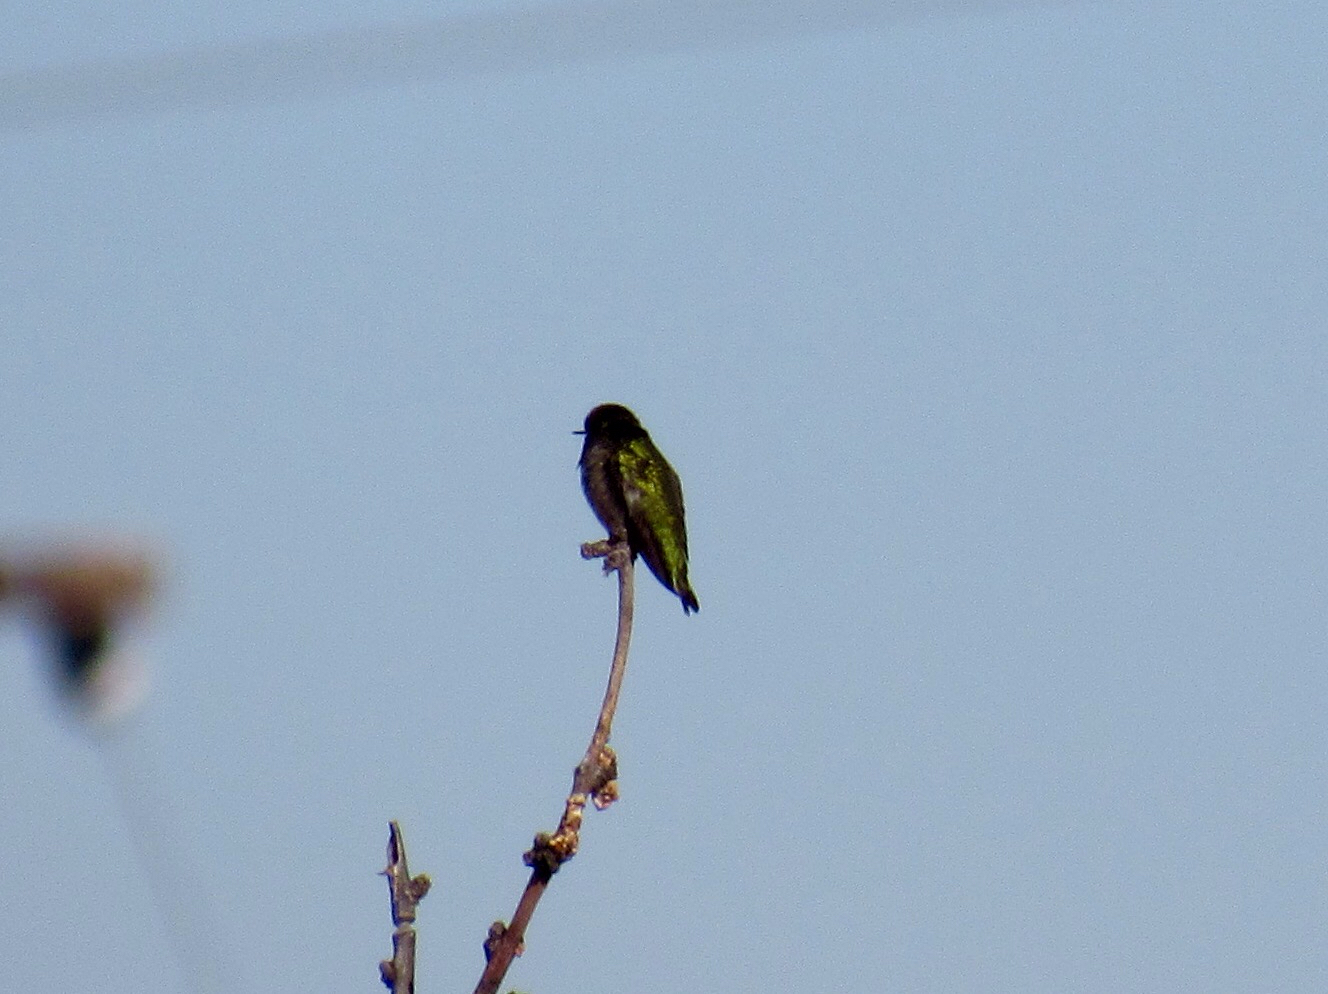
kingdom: Animalia
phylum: Chordata
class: Aves
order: Apodiformes
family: Trochilidae
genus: Calypte
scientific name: Calypte anna
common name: Anna's hummingbird
